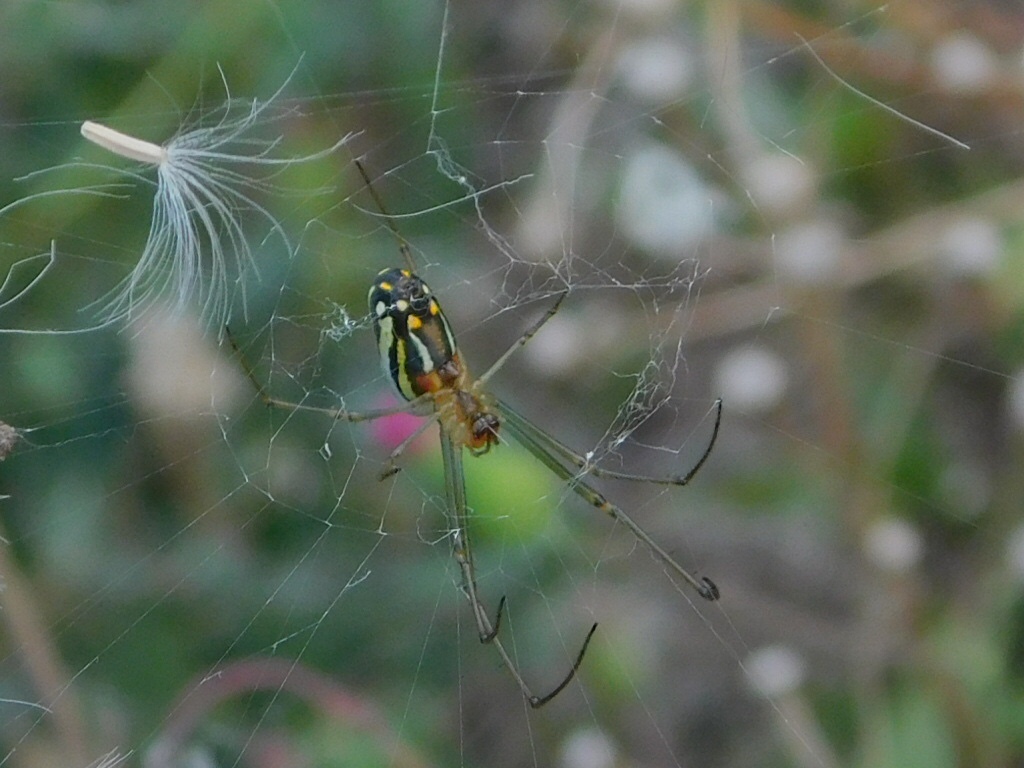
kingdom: Animalia
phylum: Arthropoda
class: Arachnida
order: Araneae
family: Tetragnathidae
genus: Leucauge
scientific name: Leucauge argyra
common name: Longjawed orb weavers
